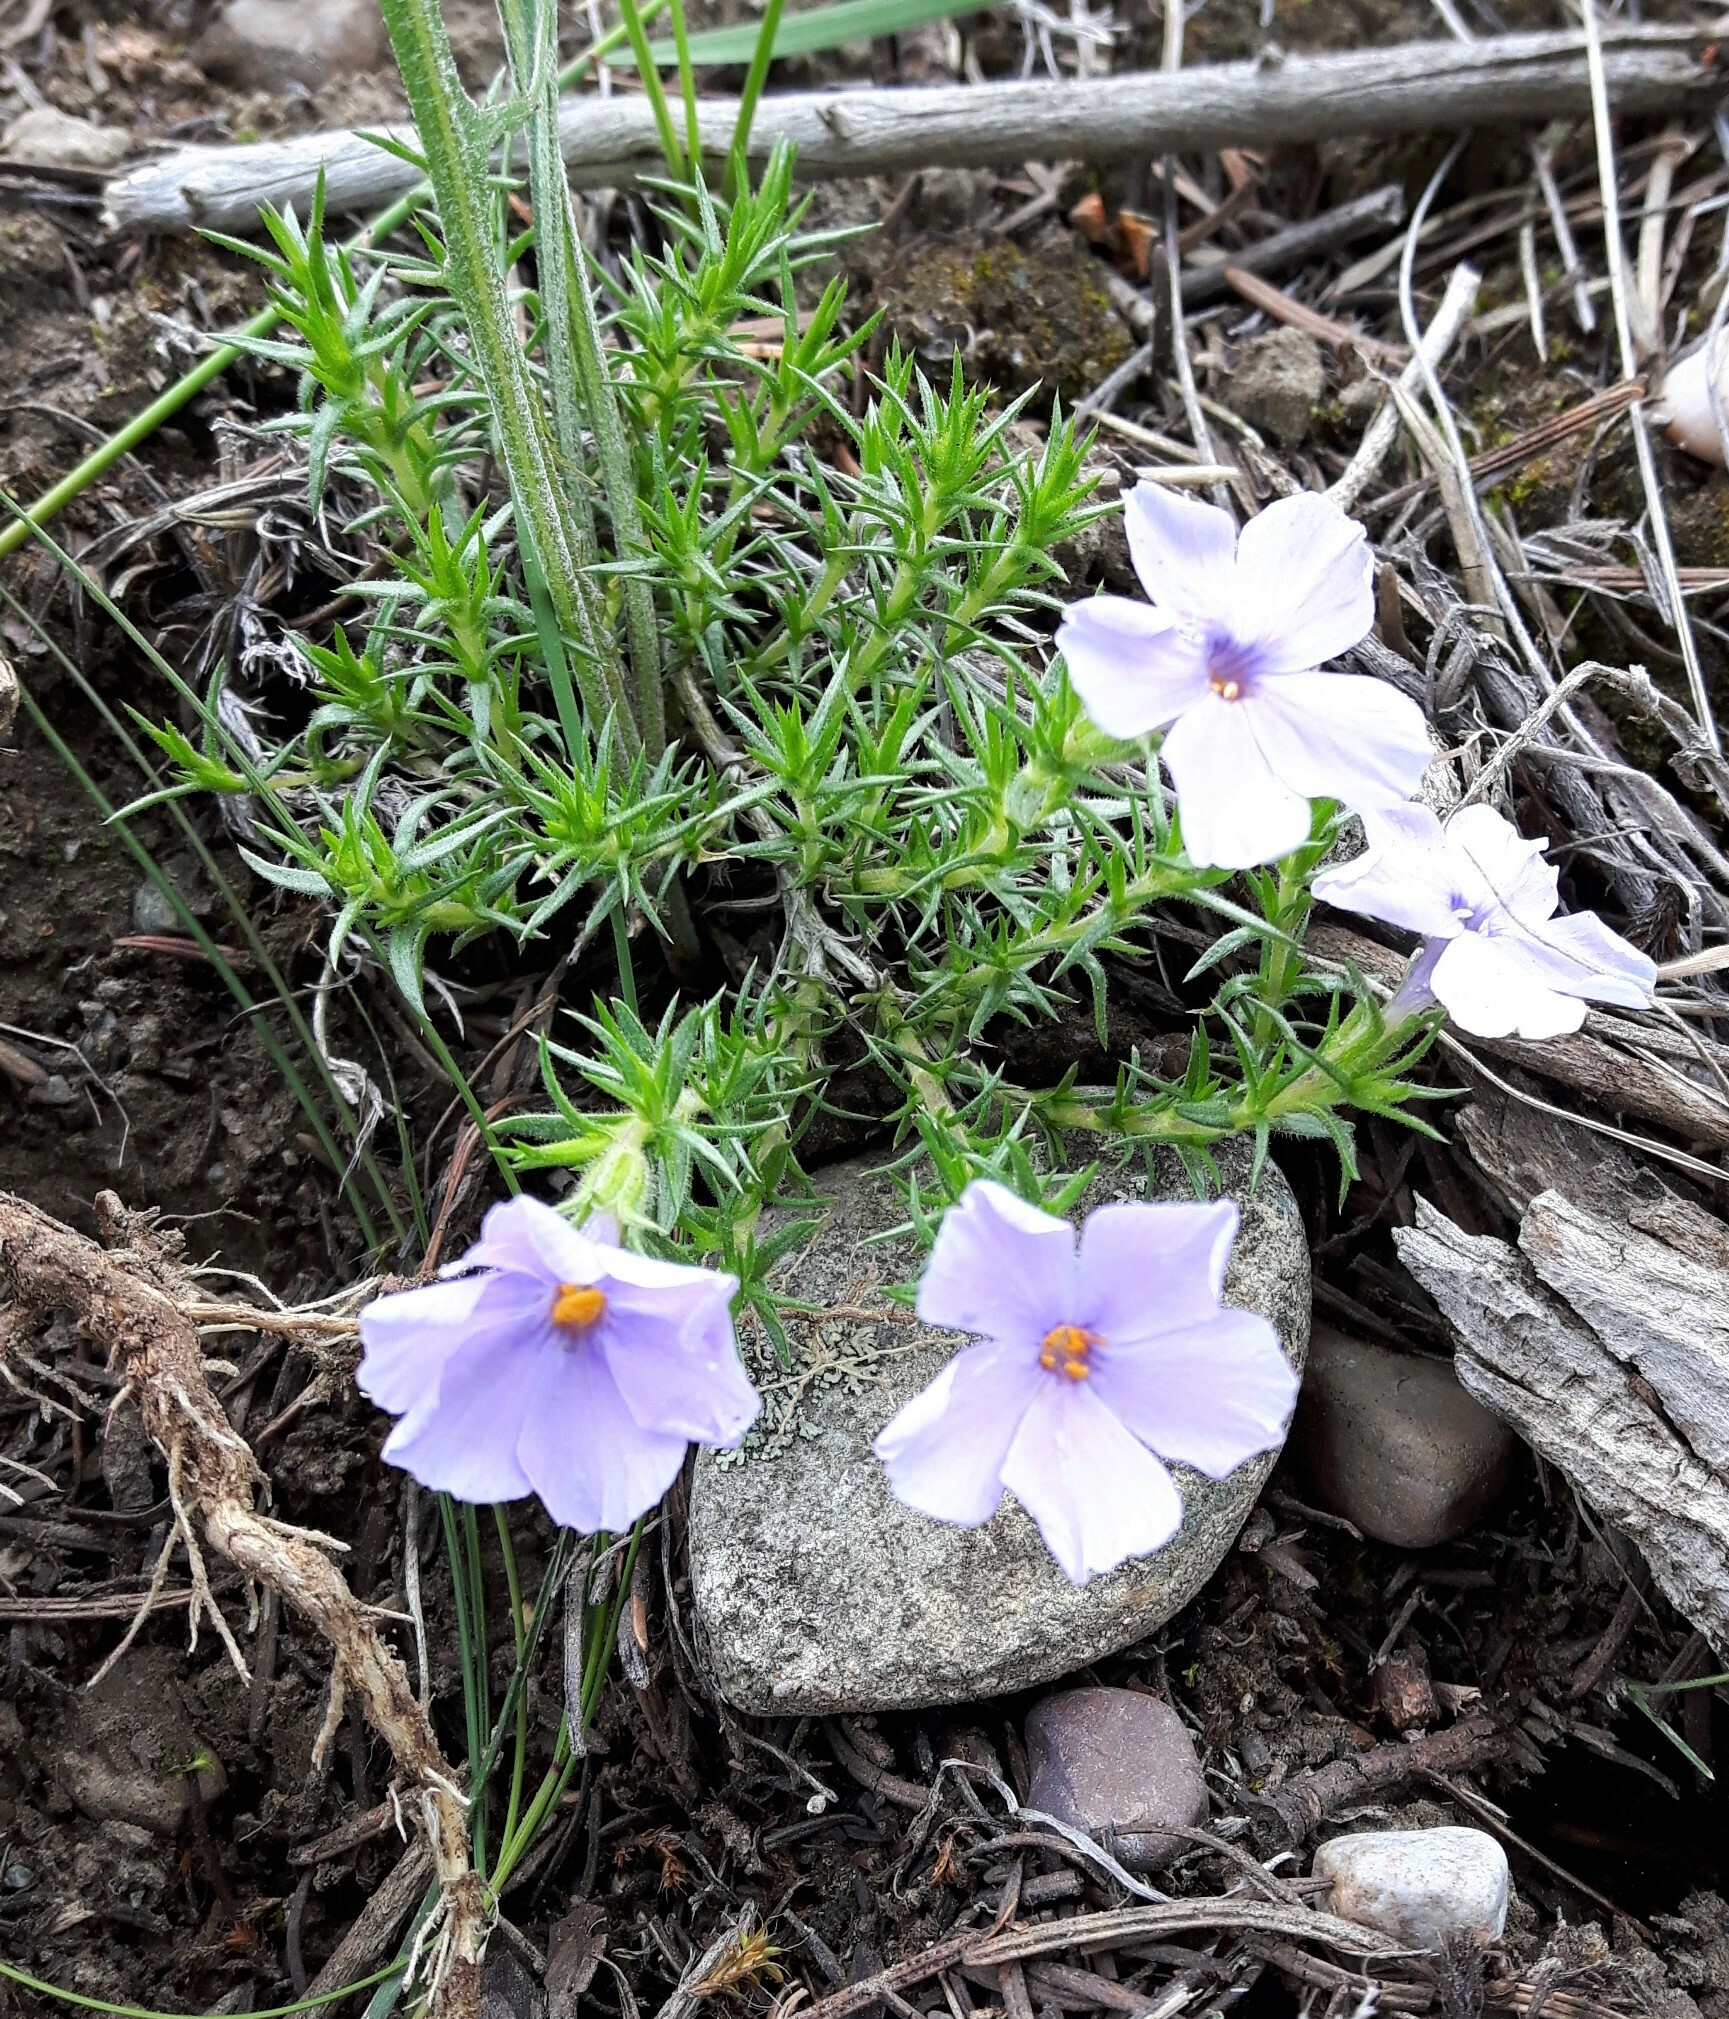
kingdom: Plantae
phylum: Tracheophyta
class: Magnoliopsida
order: Ericales
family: Polemoniaceae
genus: Phlox
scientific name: Phlox caespitosa
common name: Cushion phlox
